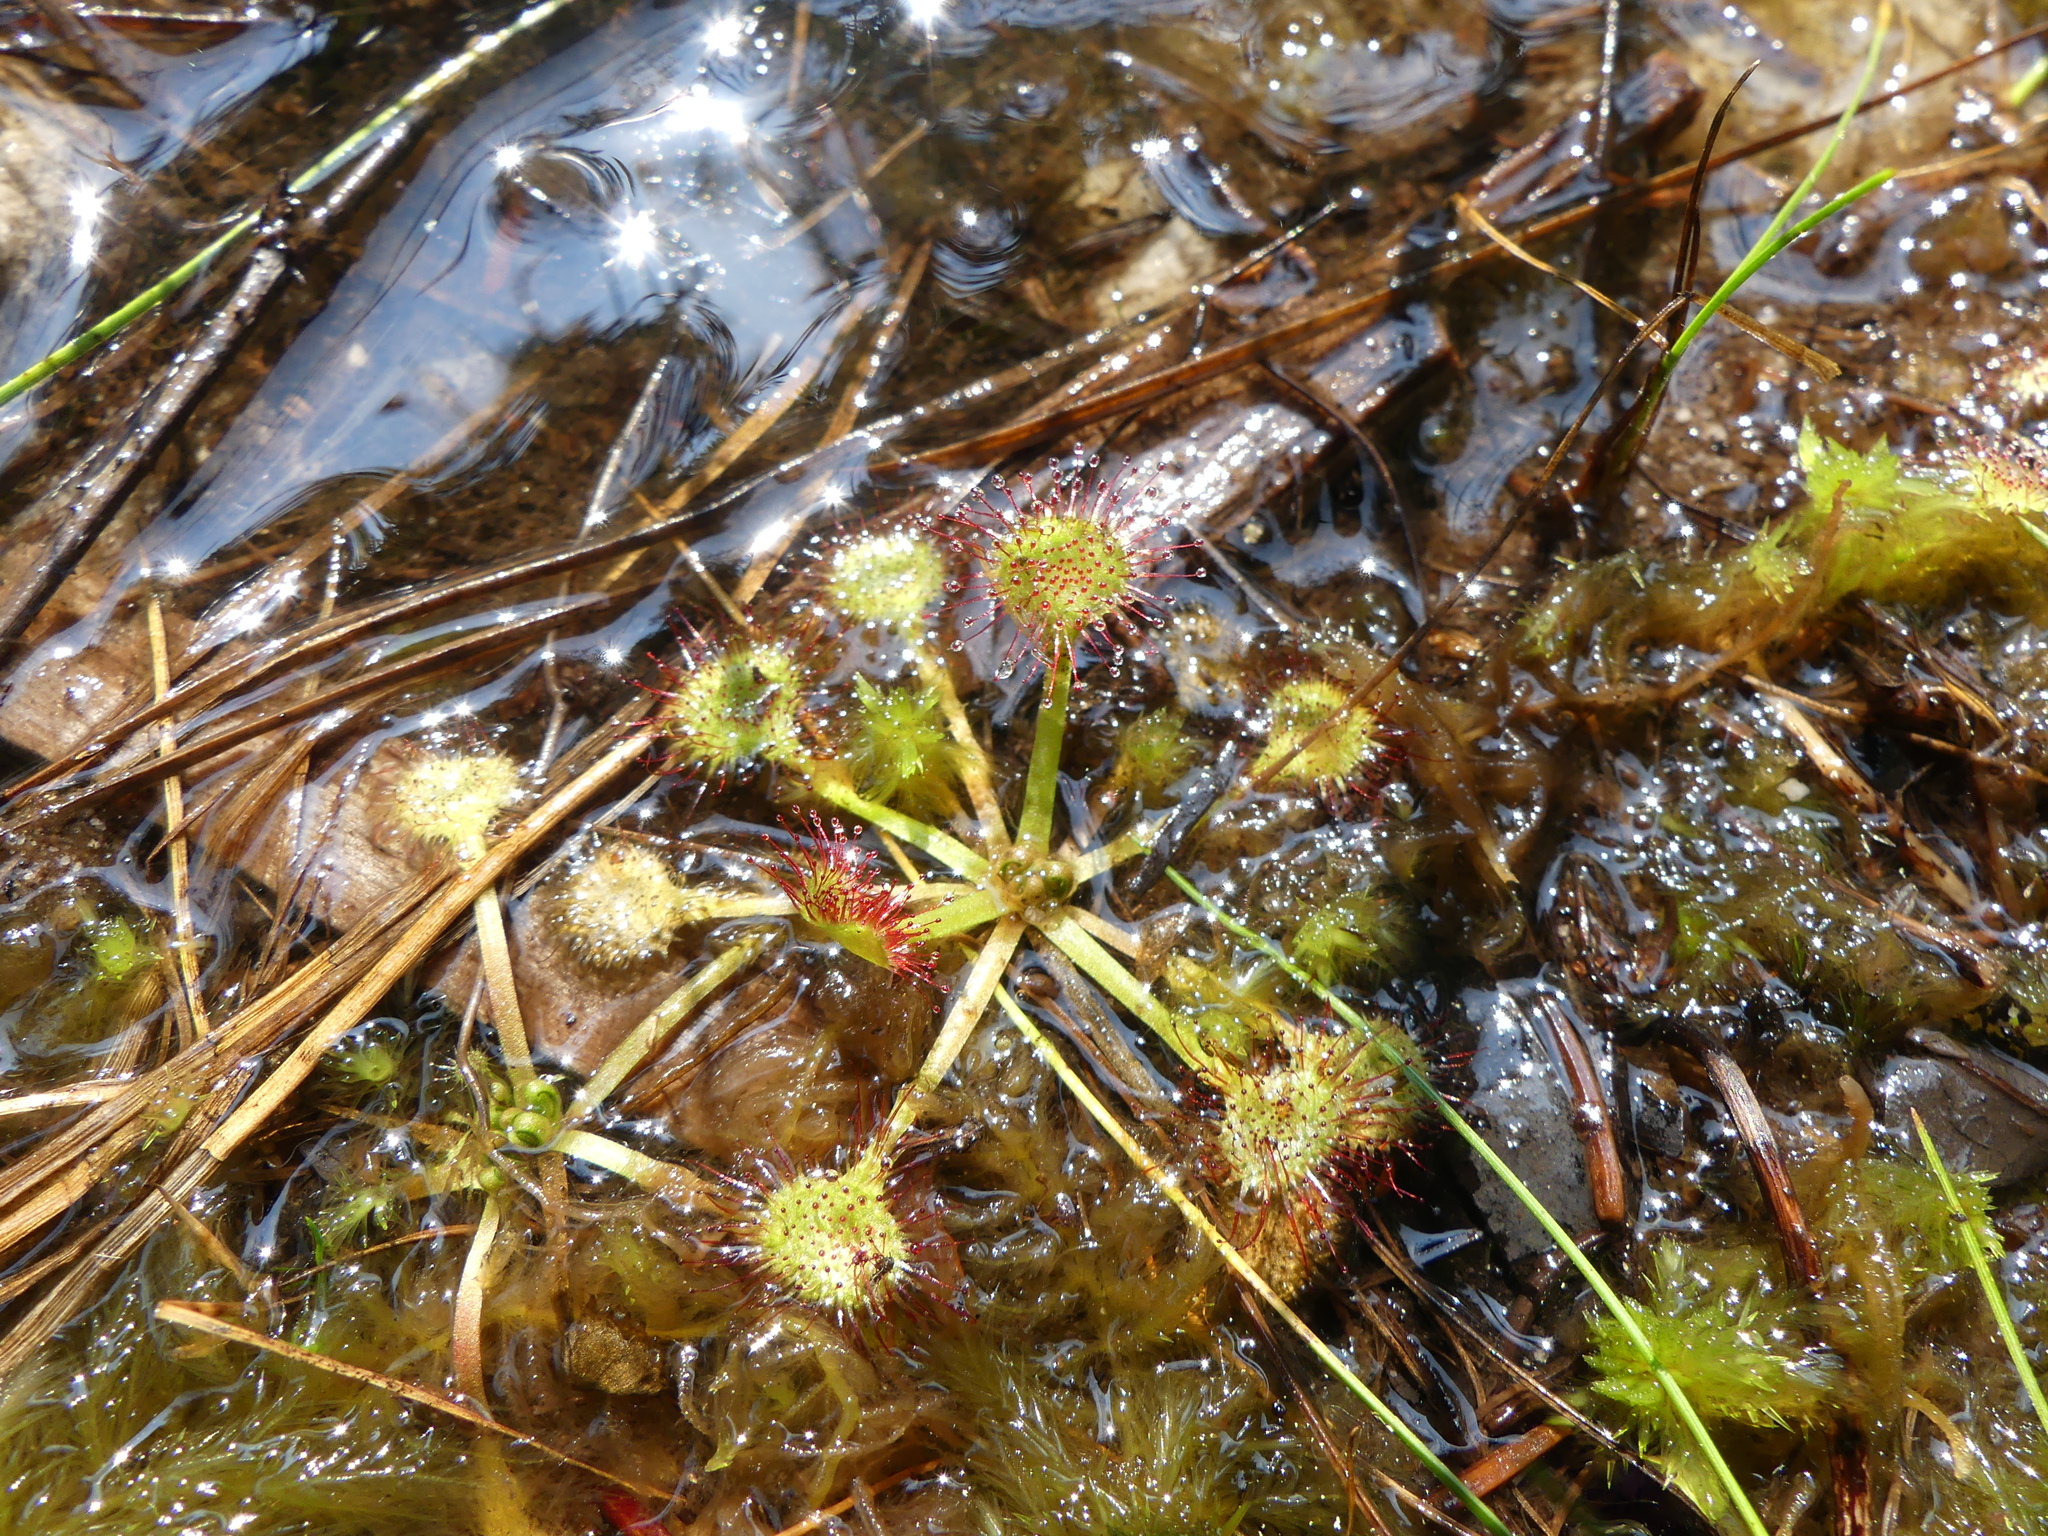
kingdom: Plantae
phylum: Tracheophyta
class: Magnoliopsida
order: Caryophyllales
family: Droseraceae
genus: Drosera
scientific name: Drosera rotundifolia
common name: Round-leaved sundew
